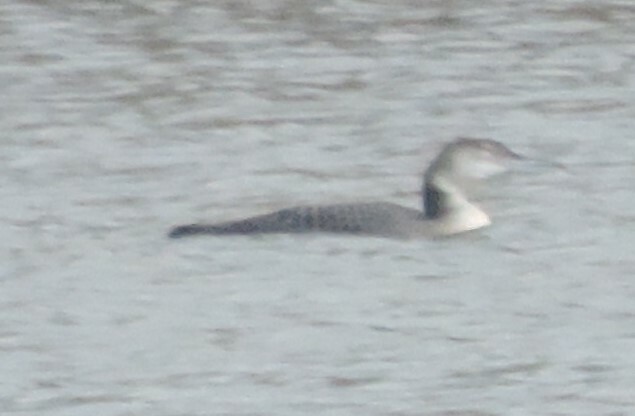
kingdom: Animalia
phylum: Chordata
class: Aves
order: Gaviiformes
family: Gaviidae
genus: Gavia
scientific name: Gavia immer
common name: Common loon
